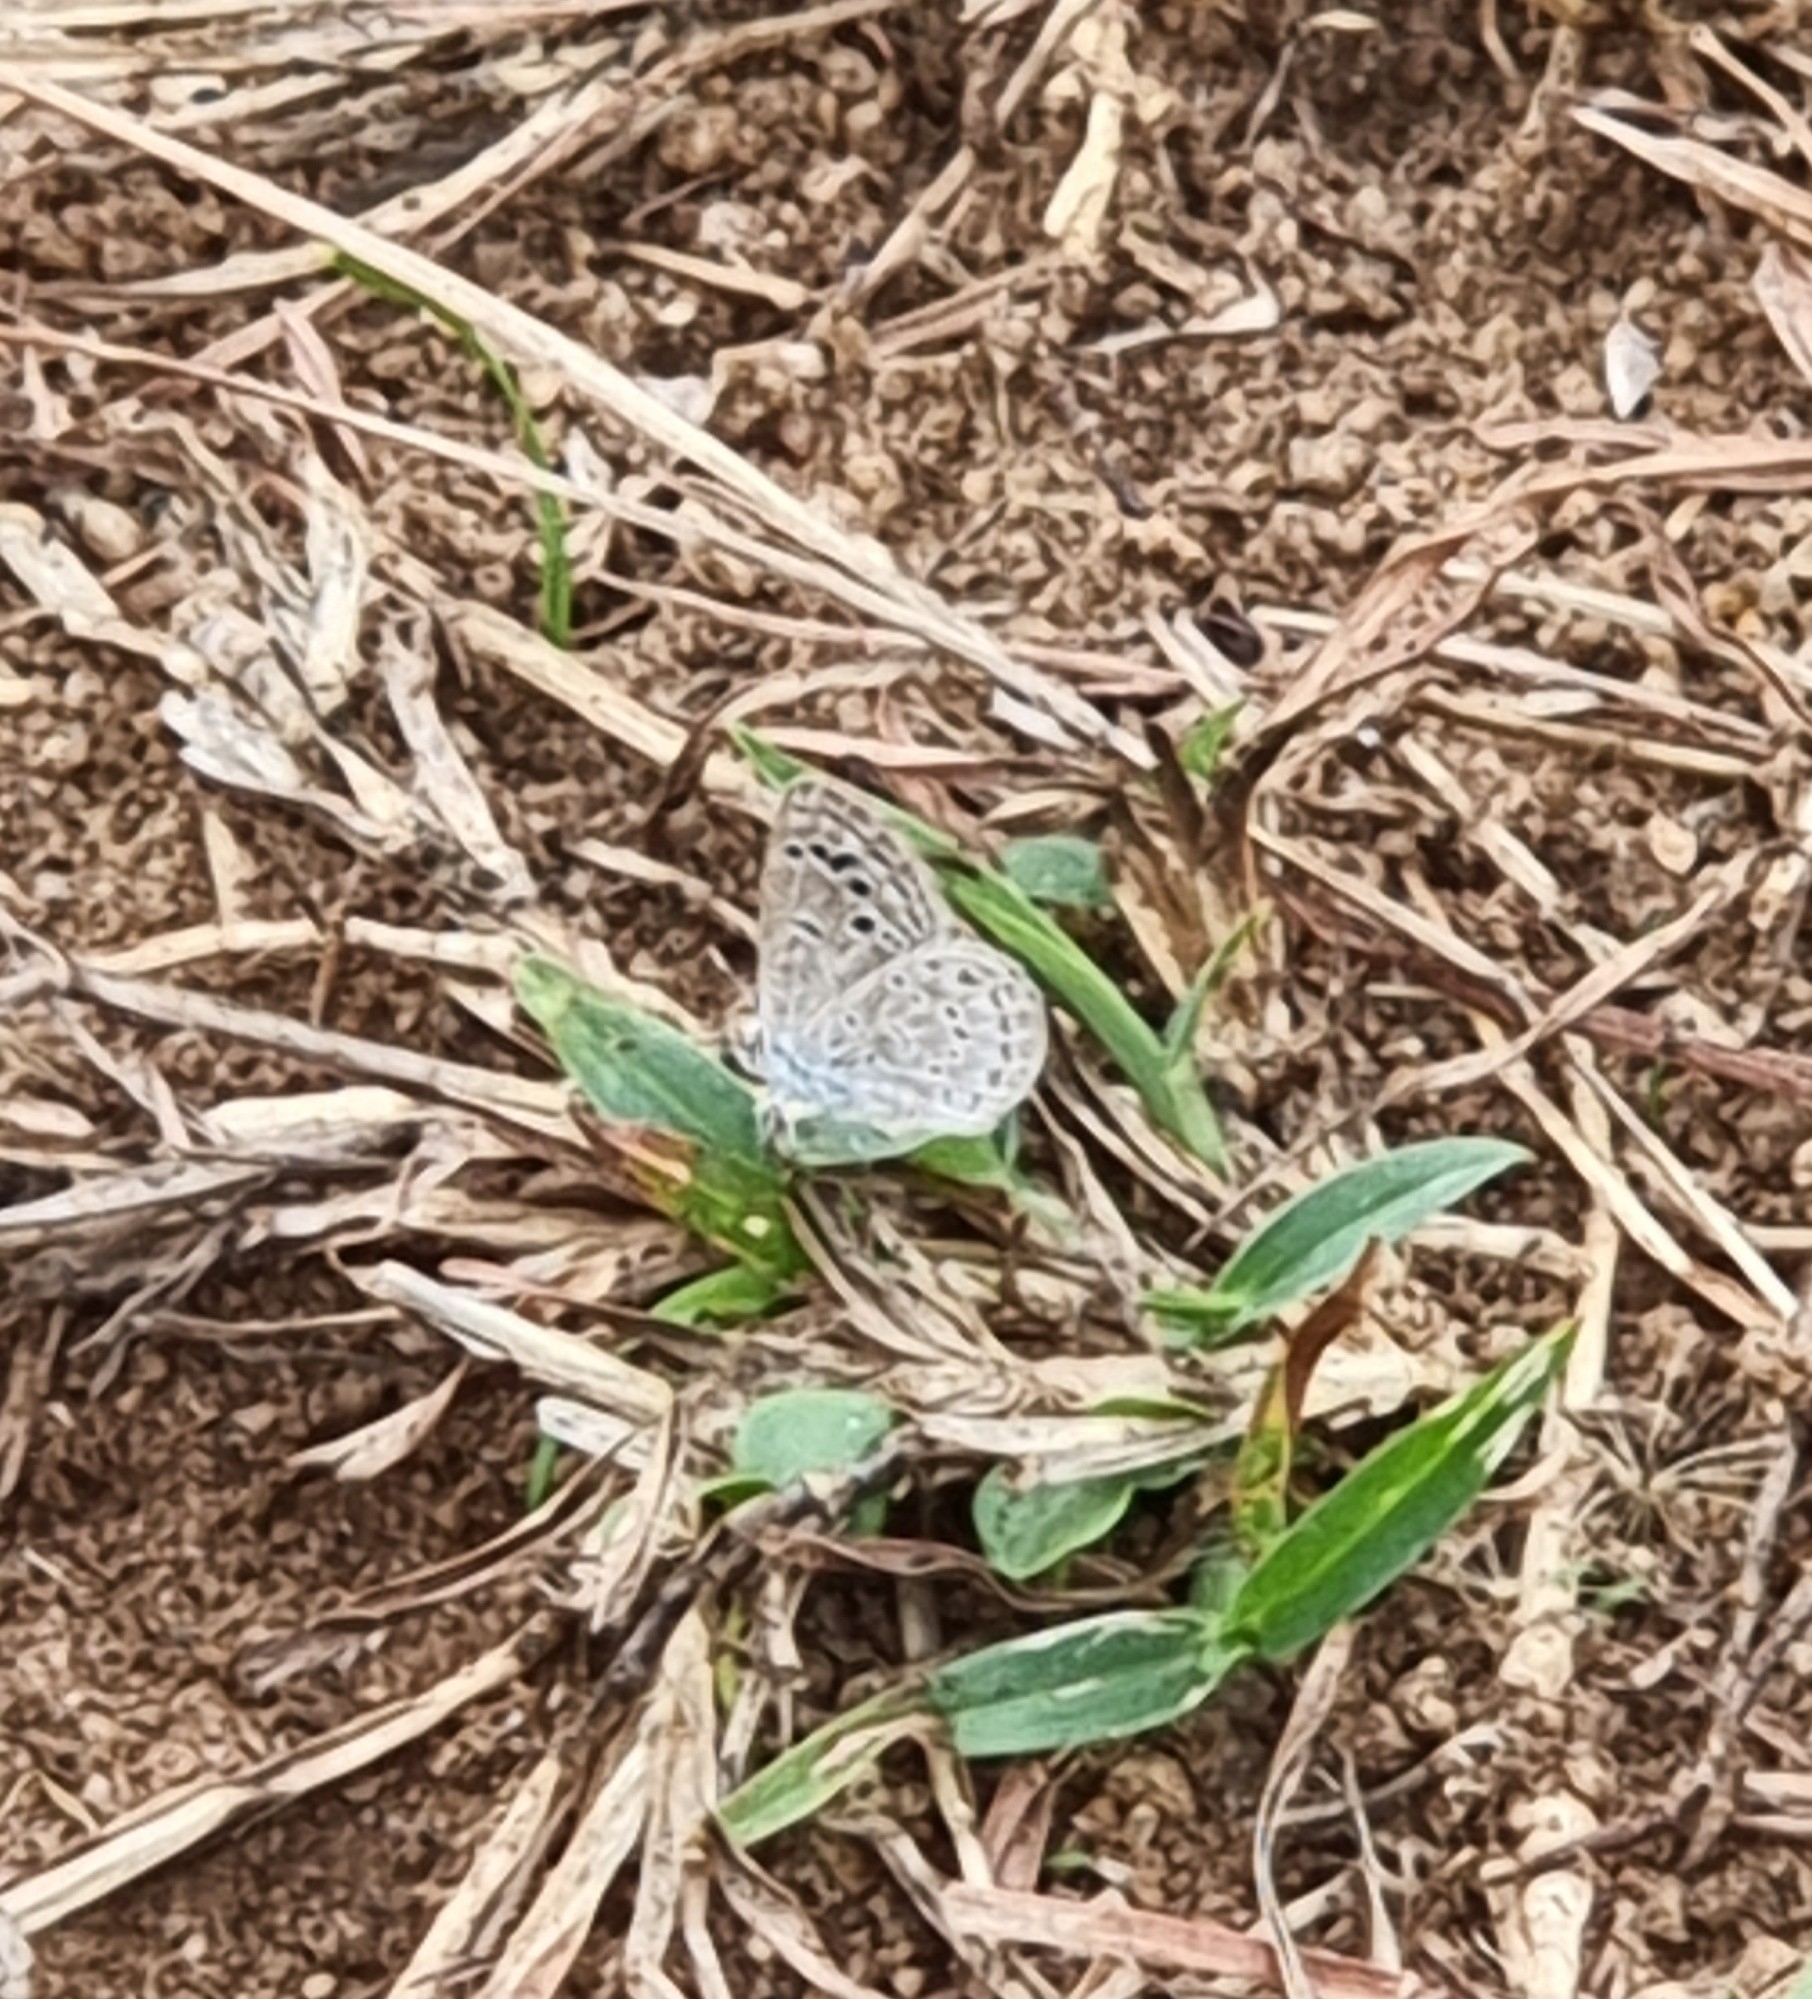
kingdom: Animalia
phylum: Arthropoda
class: Insecta
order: Lepidoptera
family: Lycaenidae
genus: Zizina
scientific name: Zizina otis
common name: Lesser grass blue
